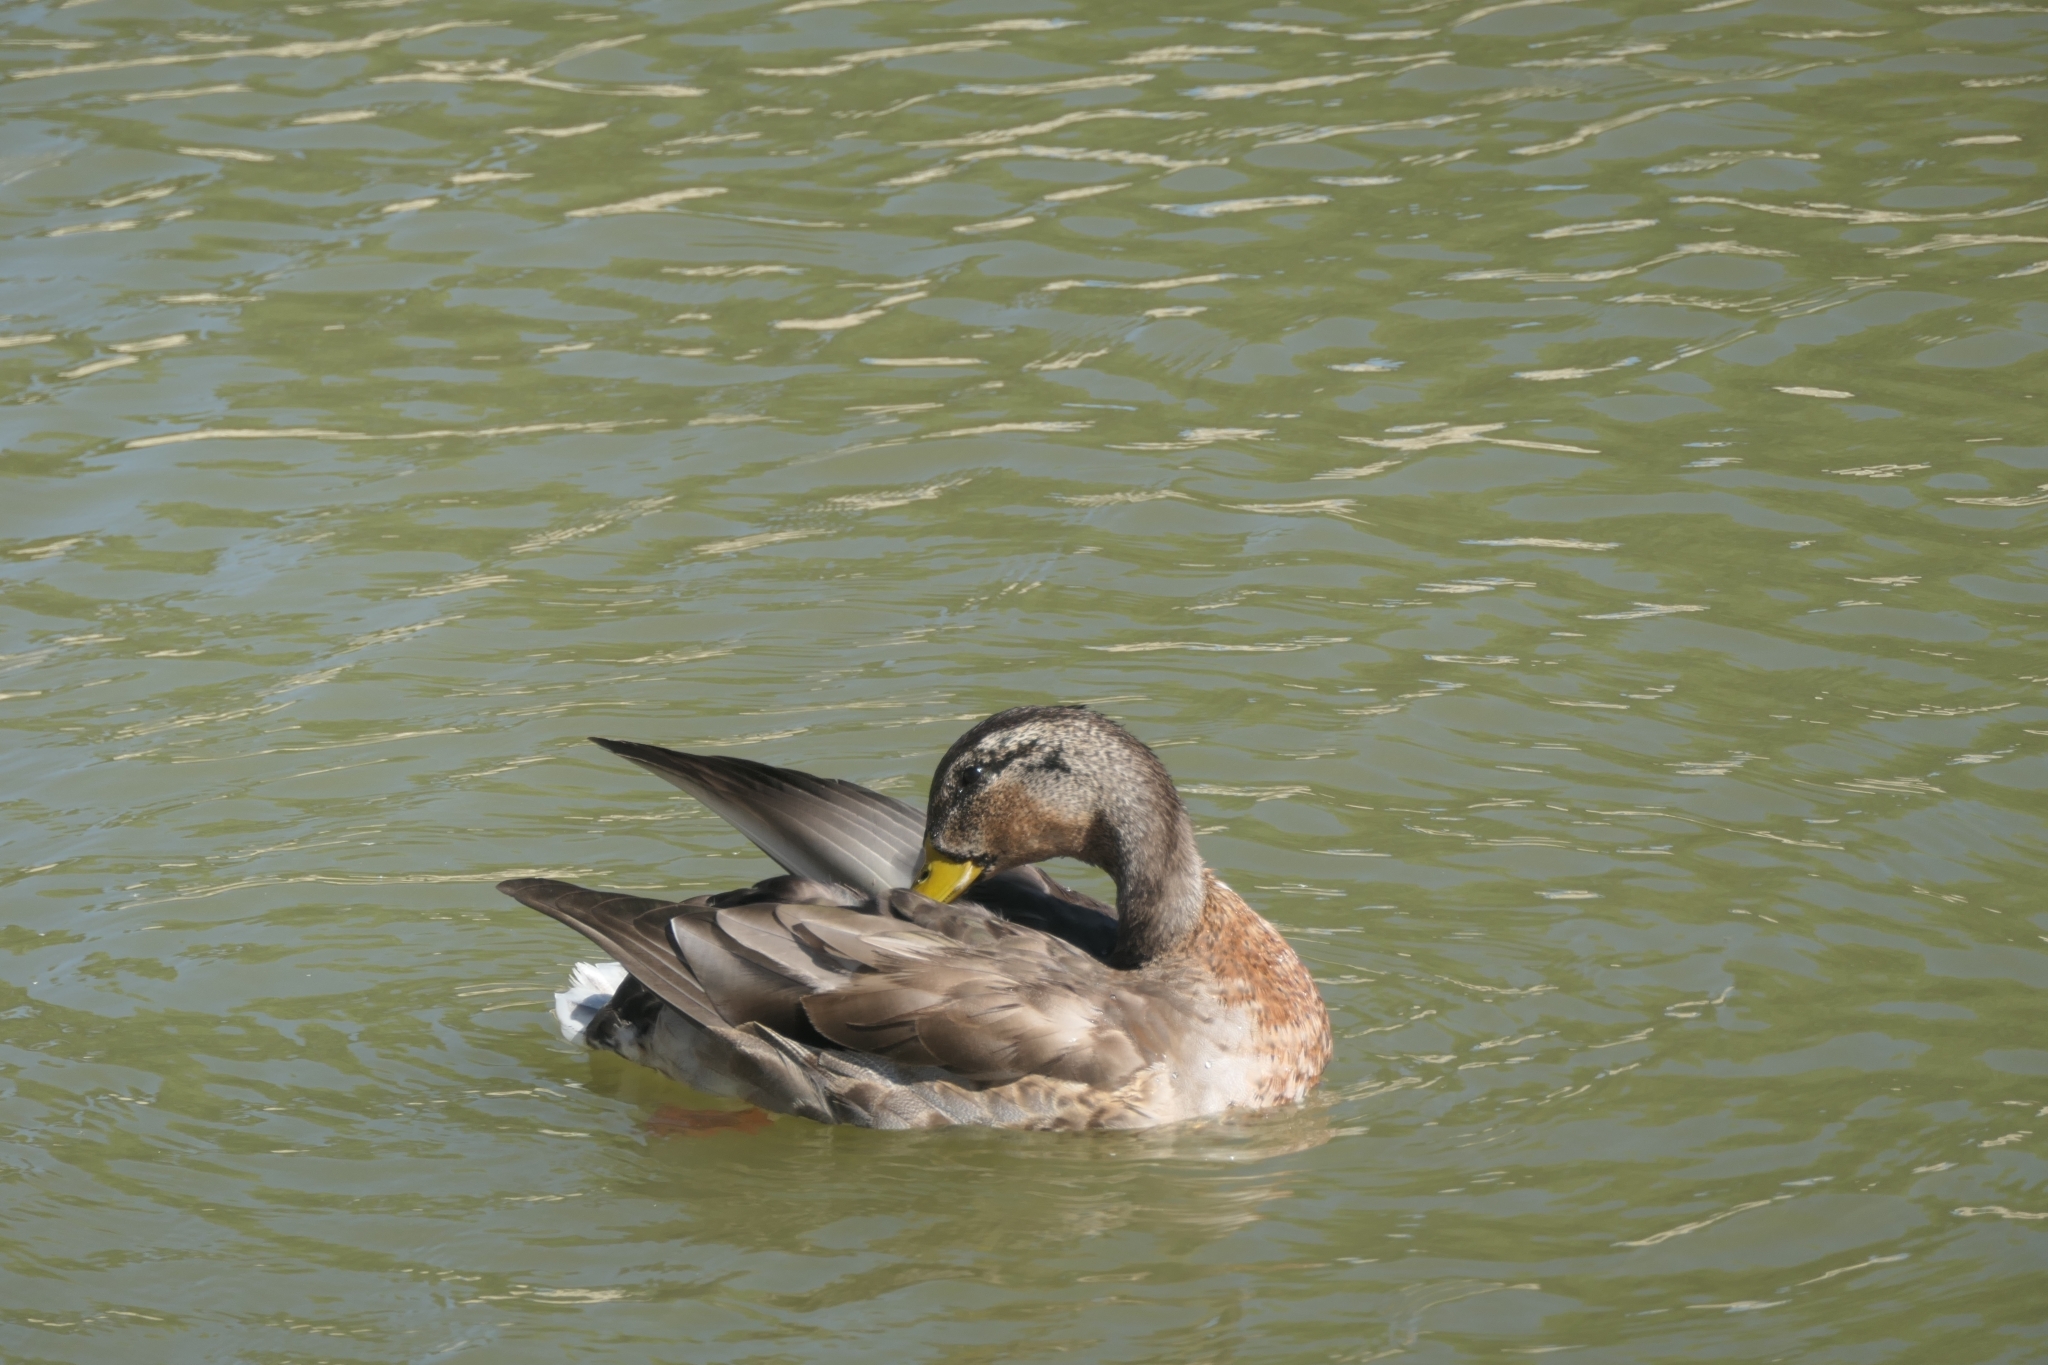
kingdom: Animalia
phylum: Chordata
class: Aves
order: Anseriformes
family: Anatidae
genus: Anas
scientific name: Anas platyrhynchos
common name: Mallard
